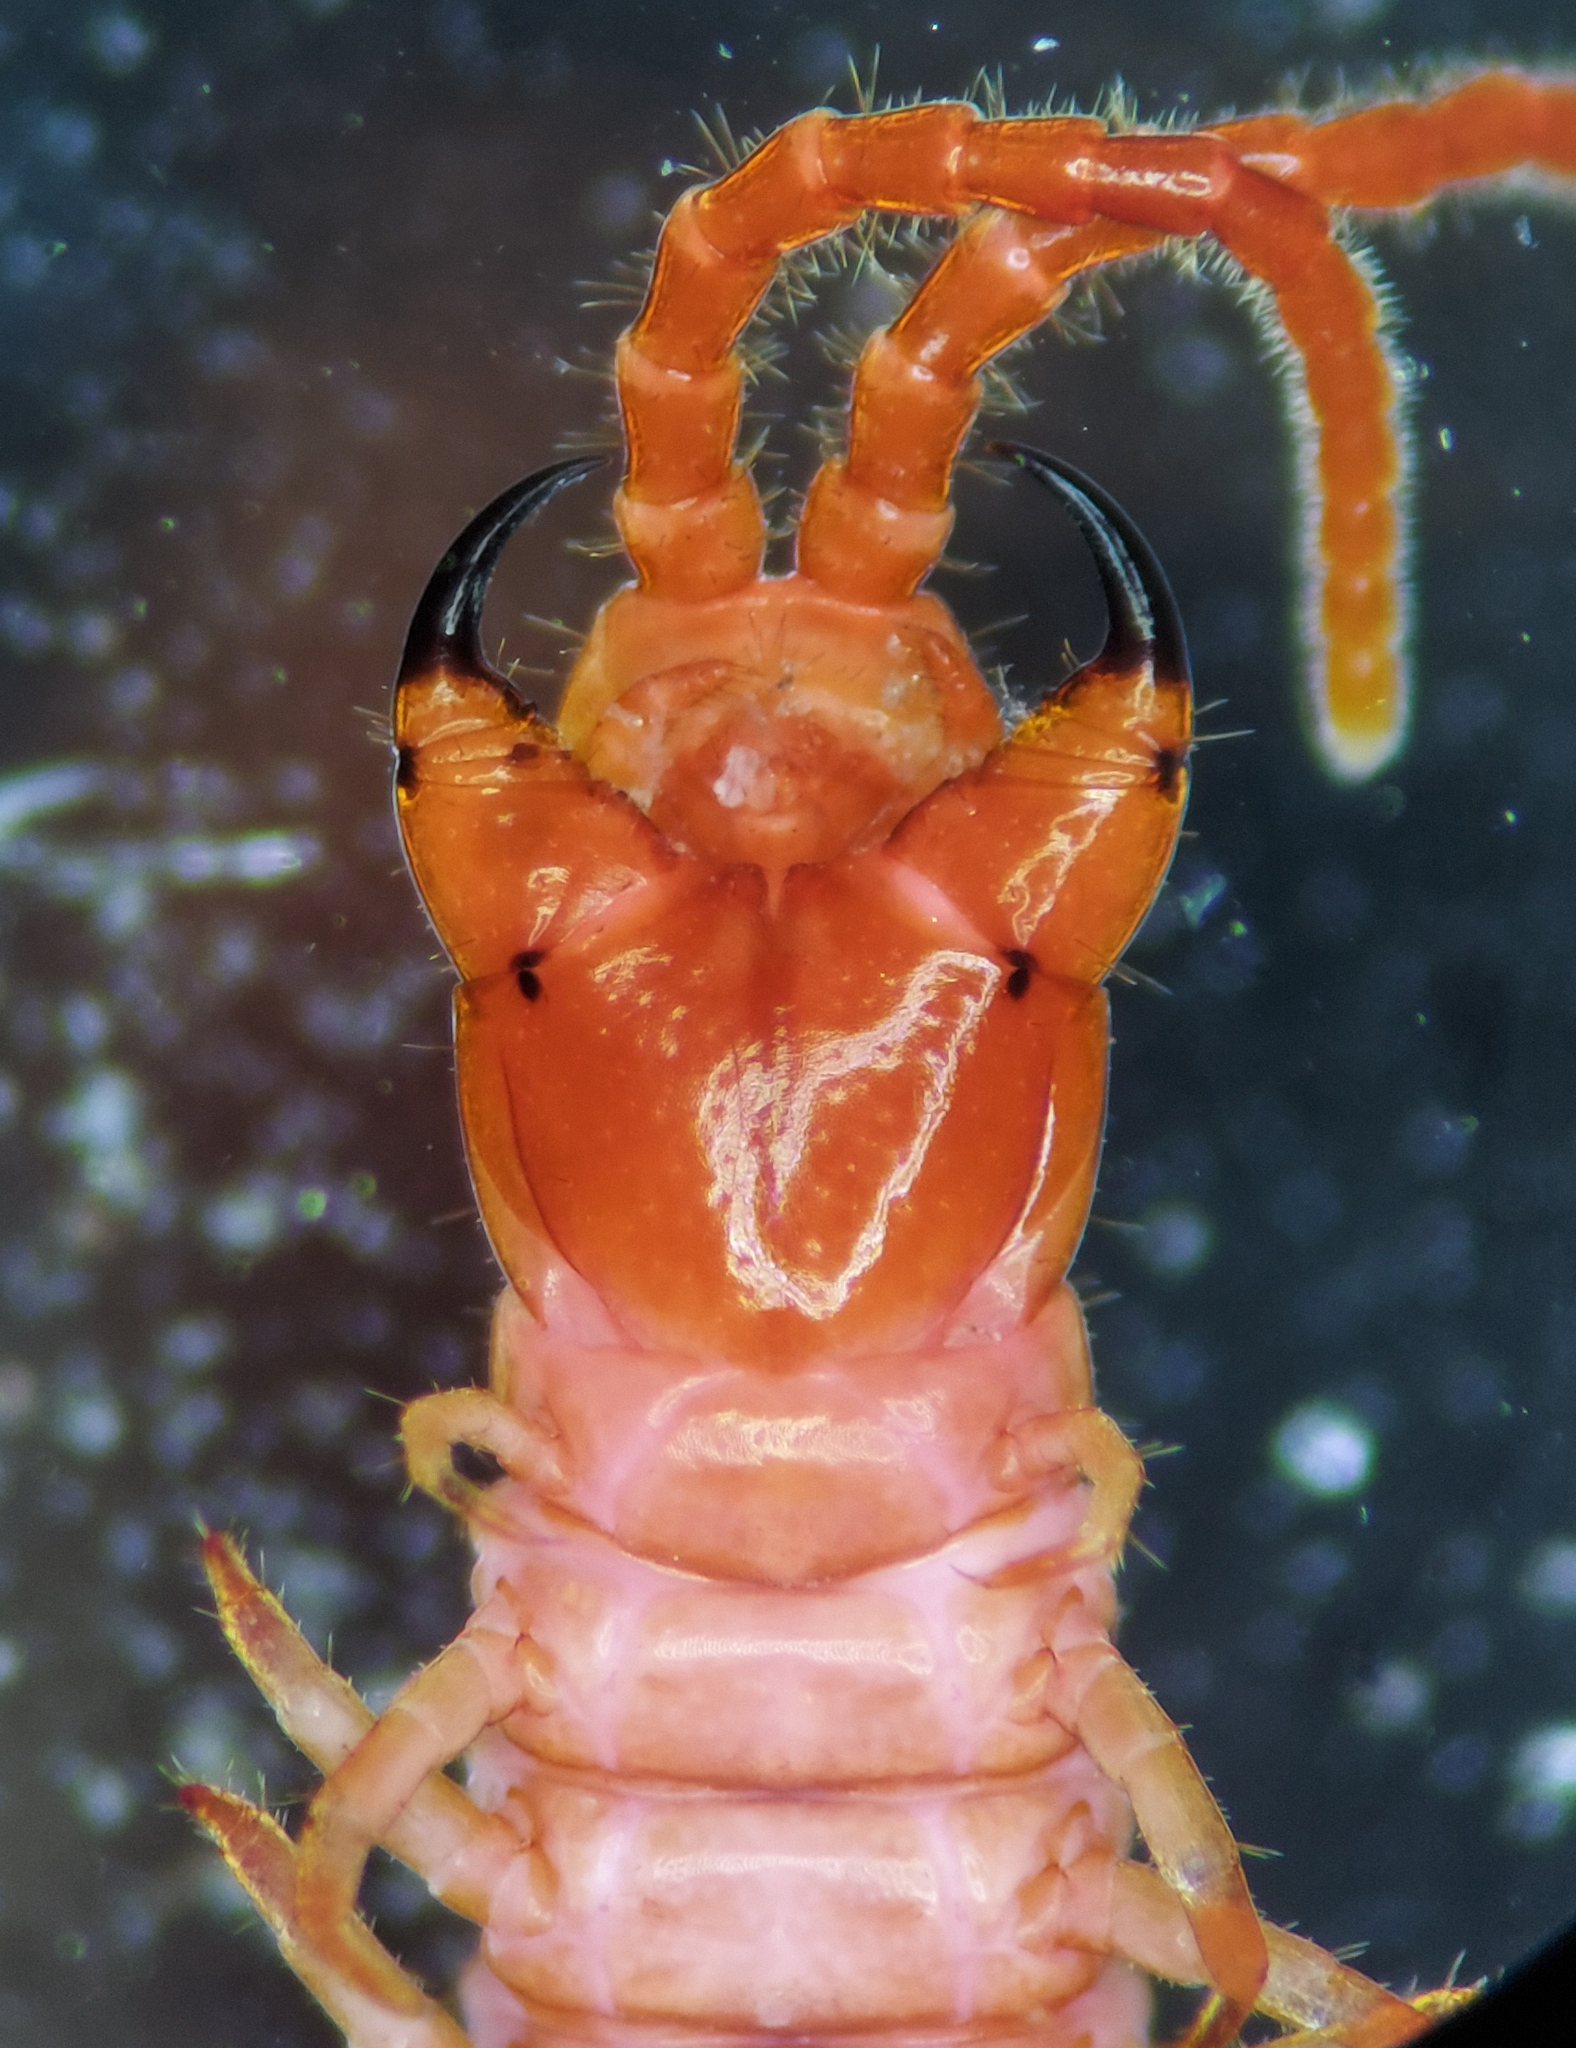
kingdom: Animalia
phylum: Arthropoda
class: Chilopoda
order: Geophilomorpha
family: Geophilidae
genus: Geophilus
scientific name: Geophilus ampyx
